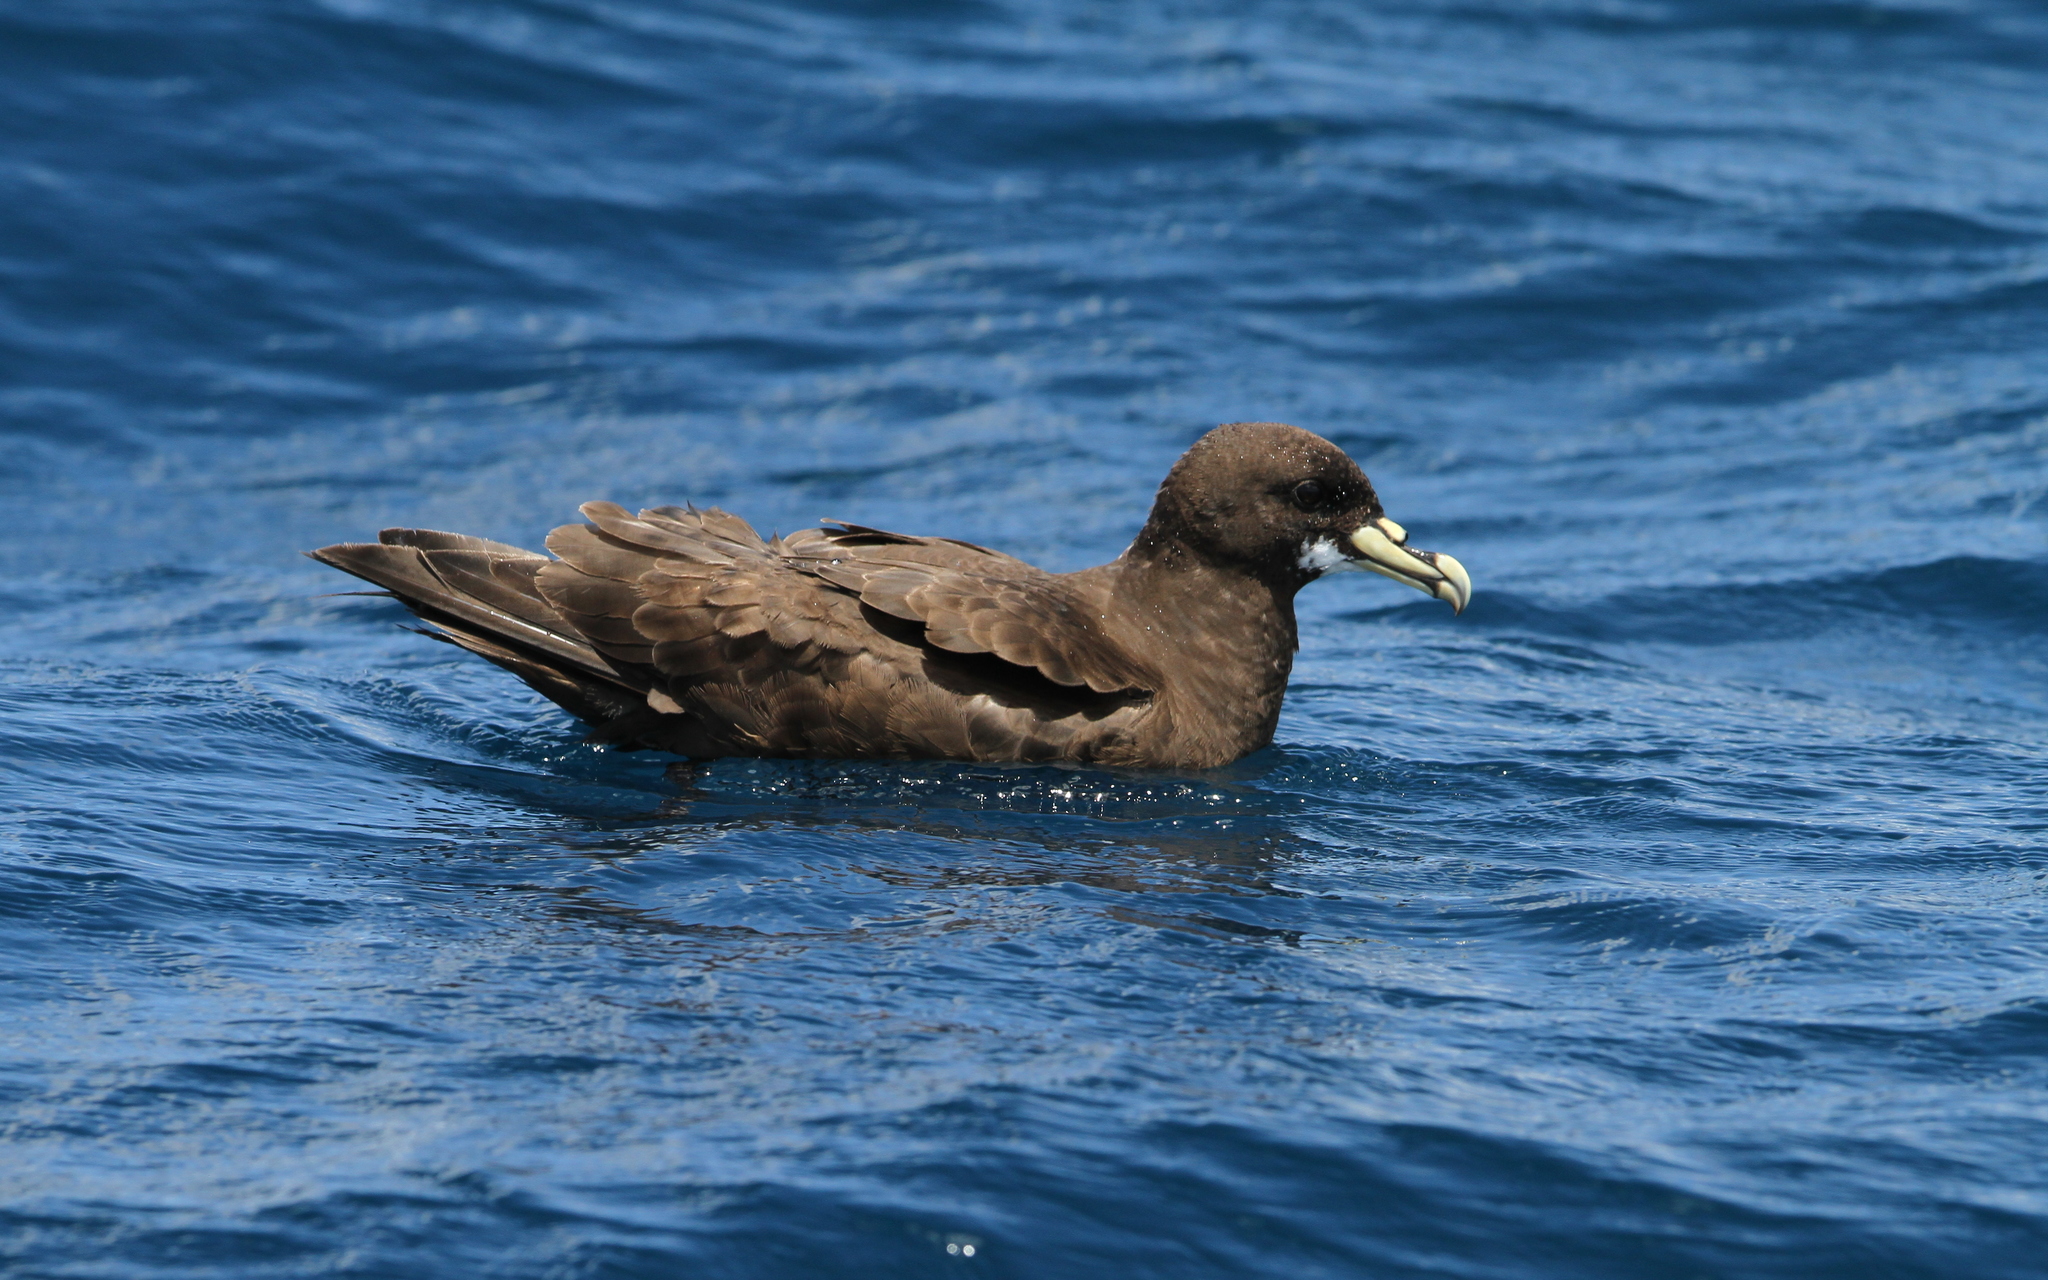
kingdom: Animalia
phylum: Chordata
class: Aves
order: Procellariiformes
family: Procellariidae
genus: Procellaria
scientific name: Procellaria aequinoctialis
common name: White-chinned petrel
